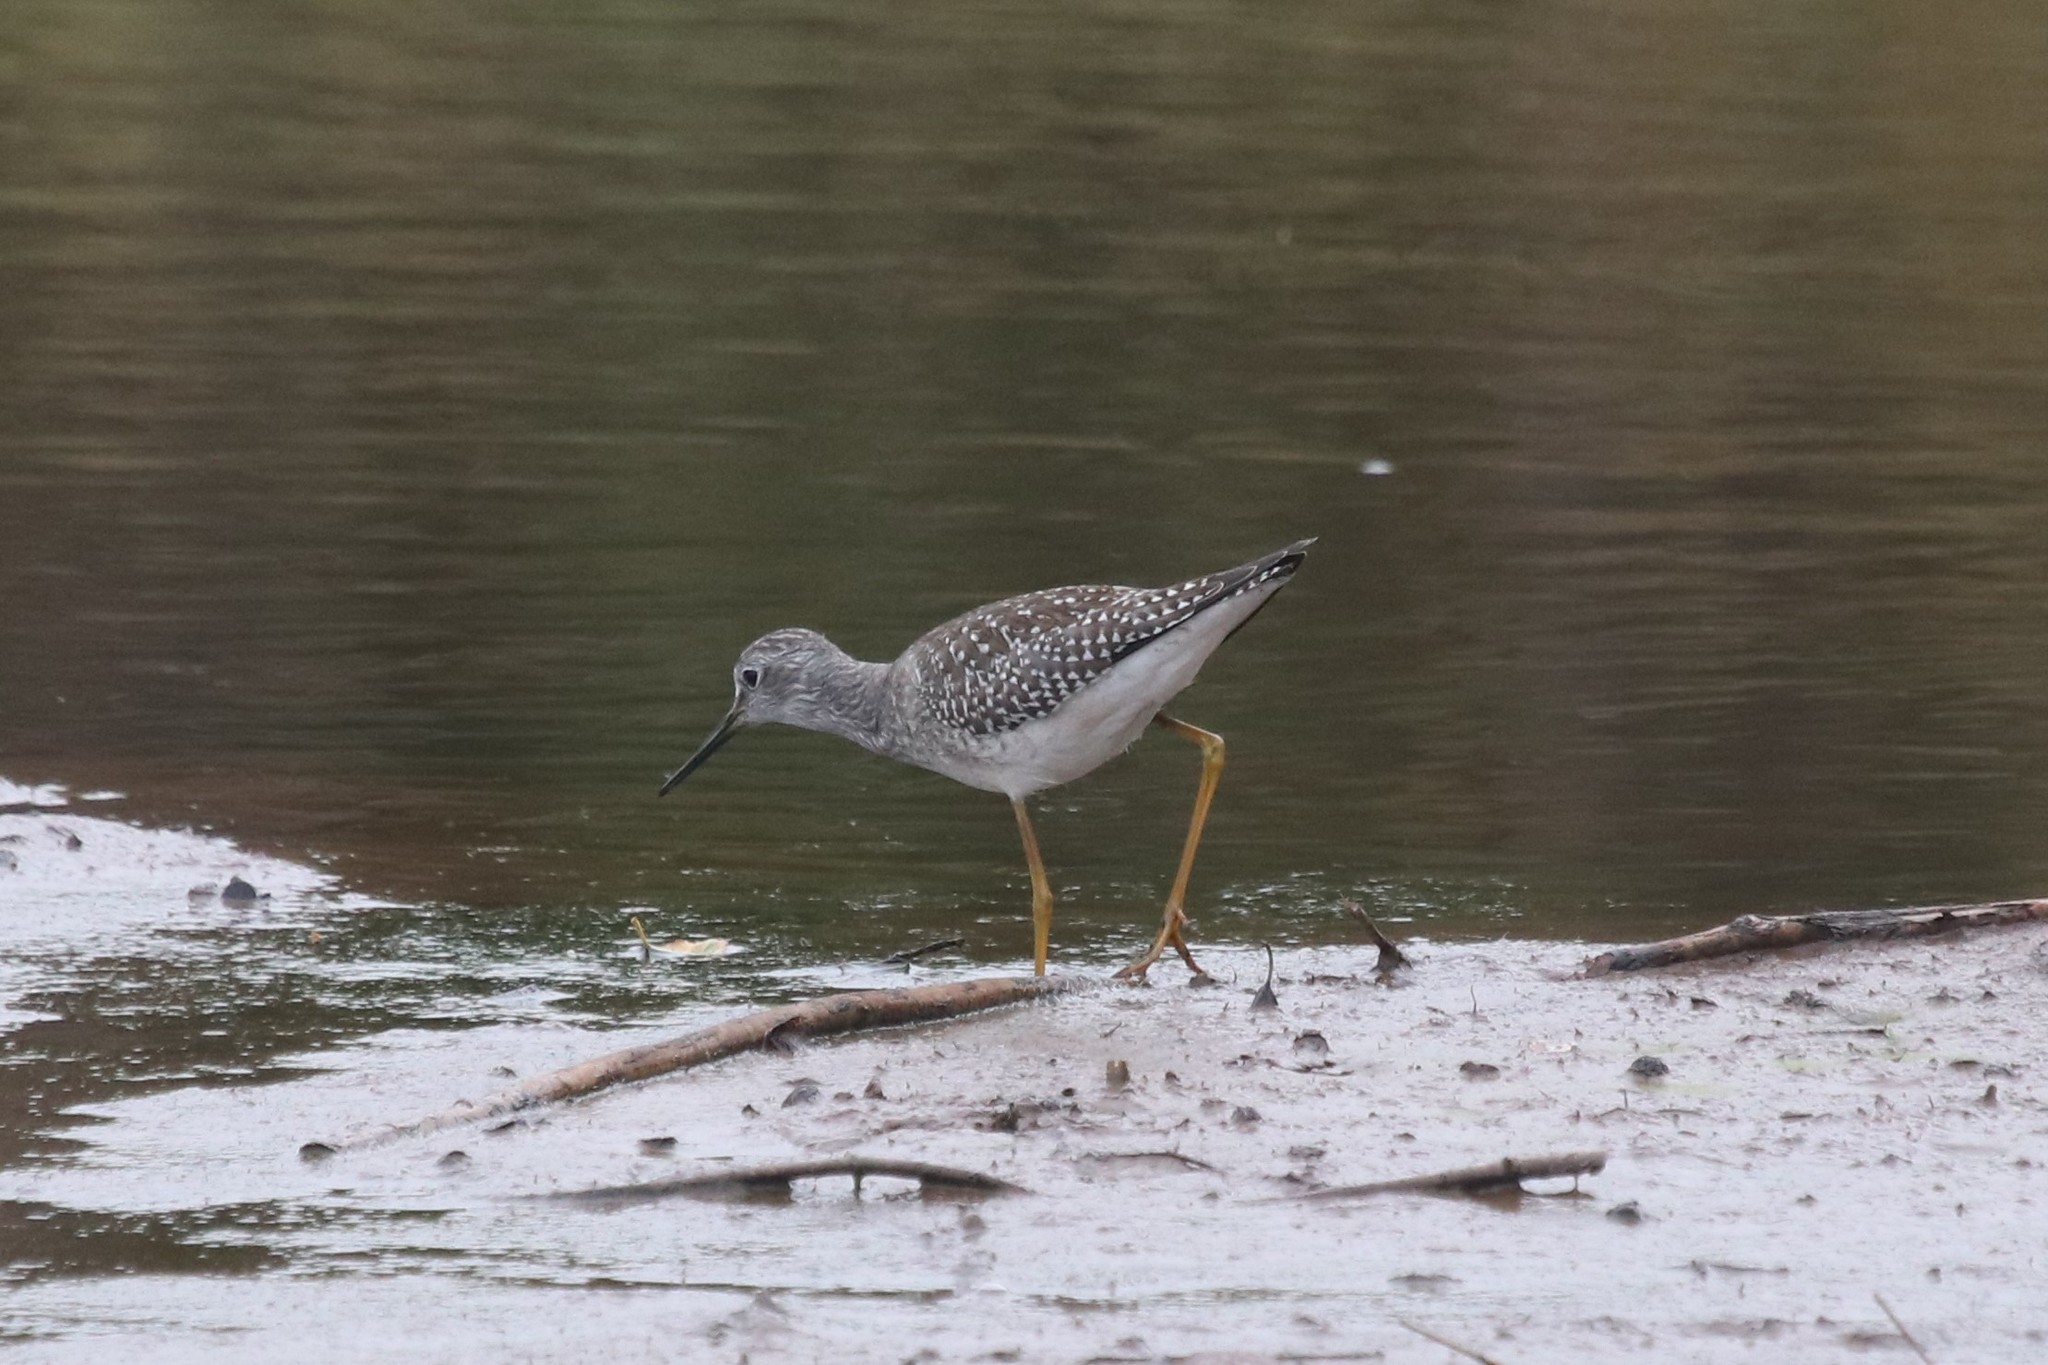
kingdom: Animalia
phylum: Chordata
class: Aves
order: Charadriiformes
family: Scolopacidae
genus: Tringa
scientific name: Tringa flavipes
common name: Lesser yellowlegs
